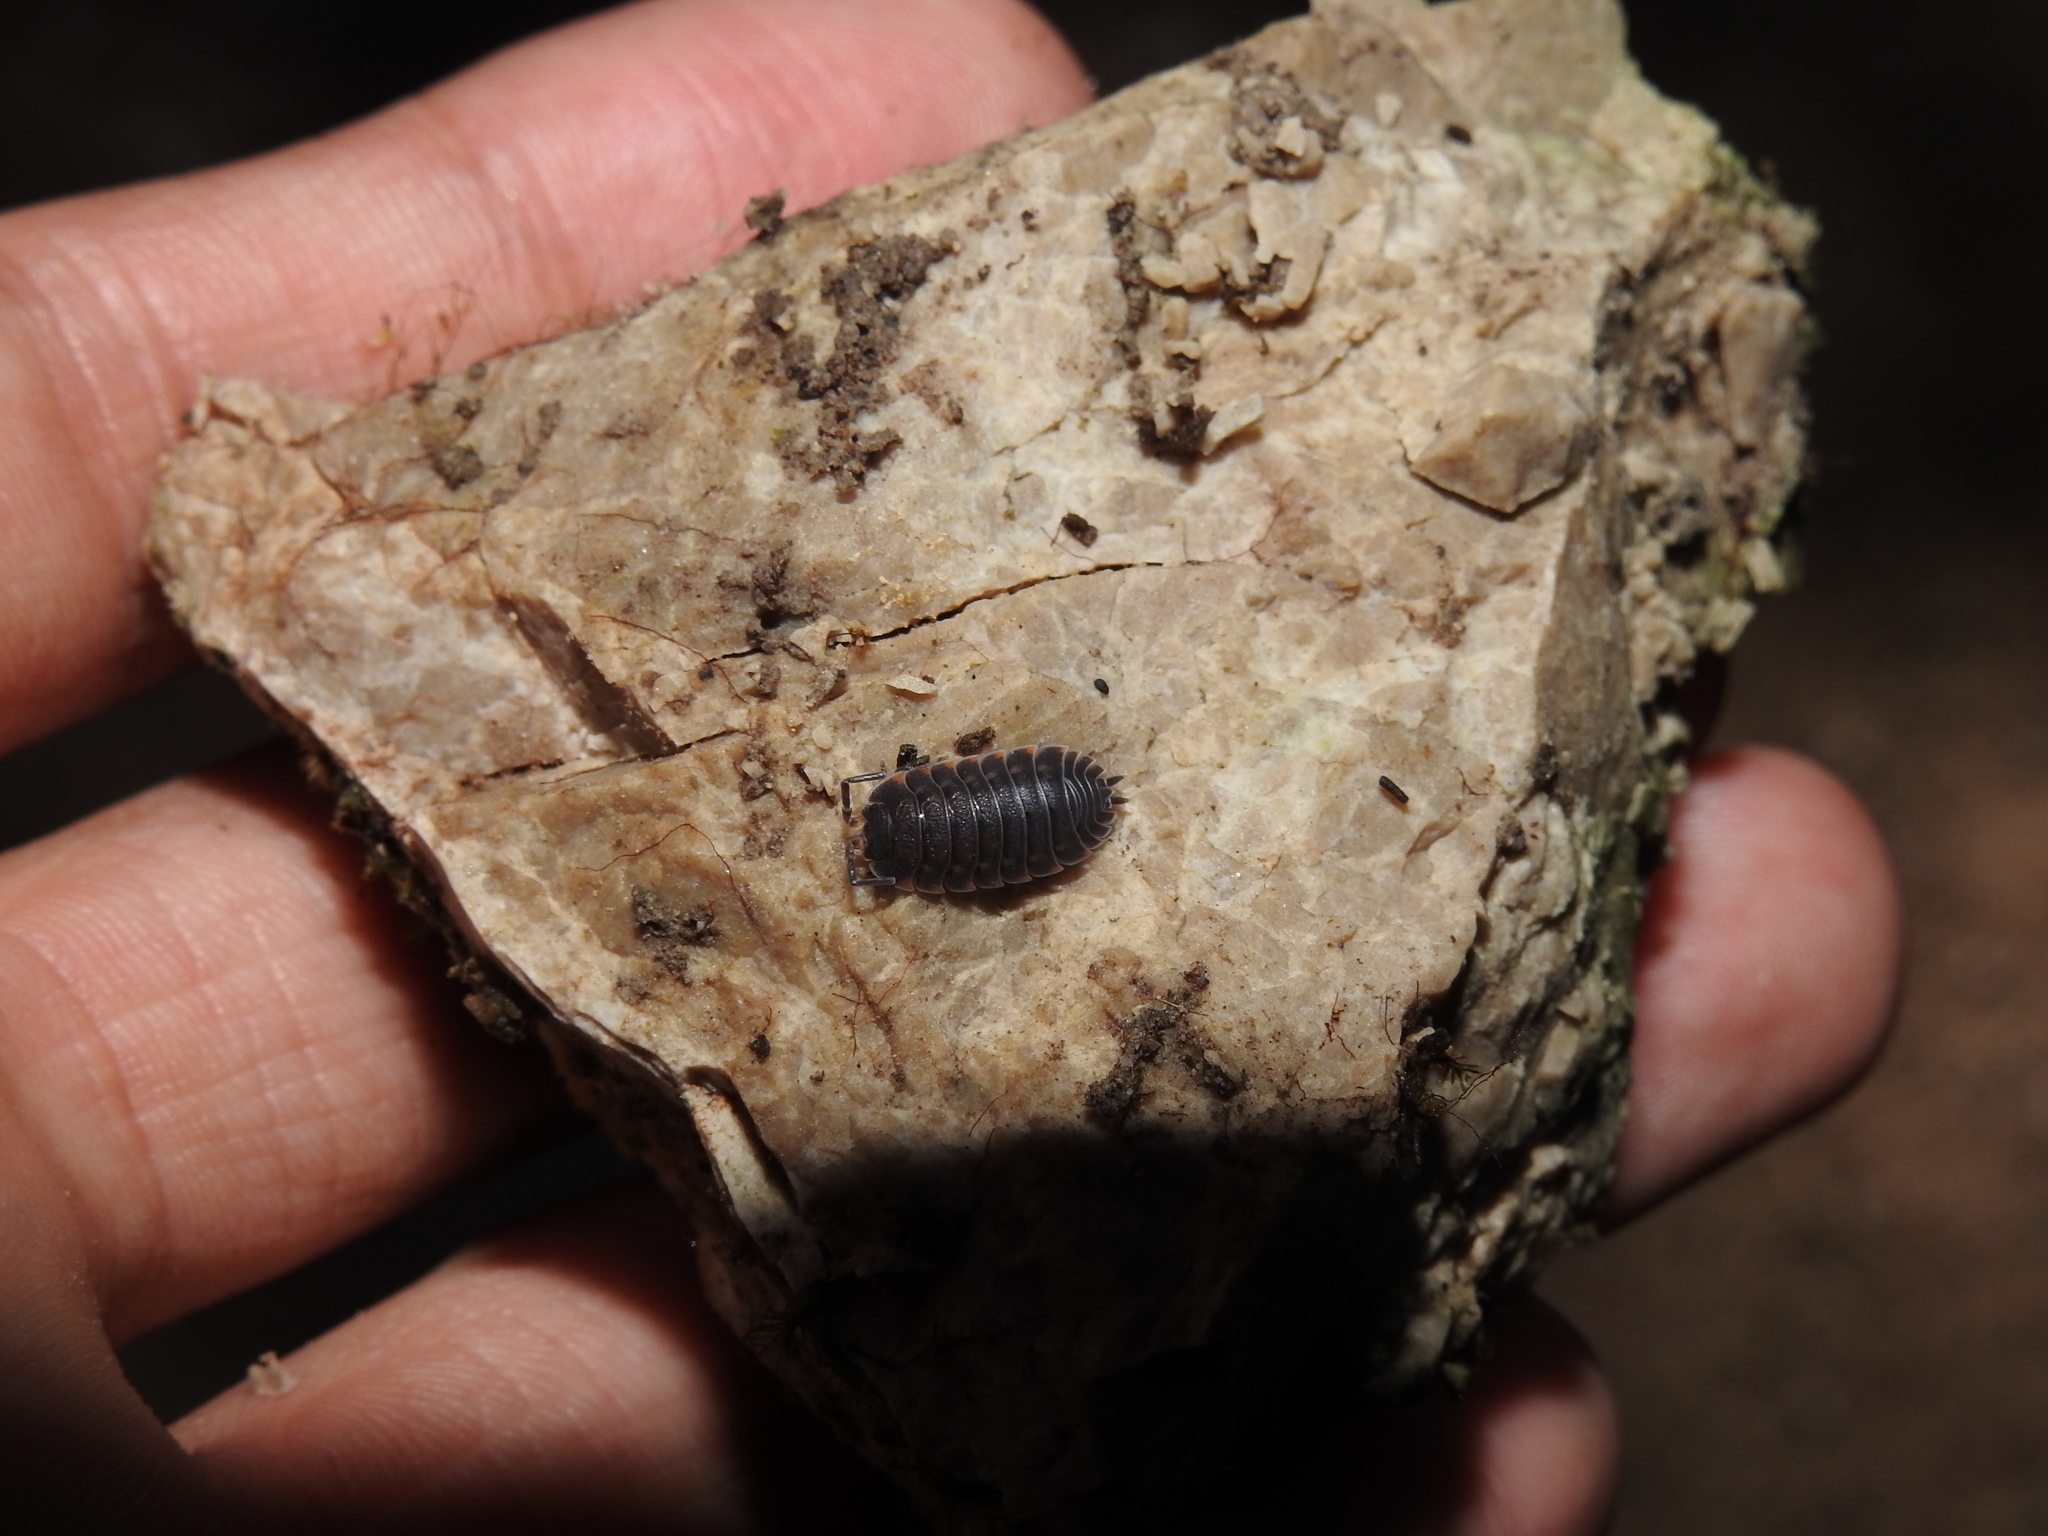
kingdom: Animalia
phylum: Arthropoda
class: Malacostraca
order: Isopoda
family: Trachelipodidae
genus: Trachelipus
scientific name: Trachelipus ratzeburgii
